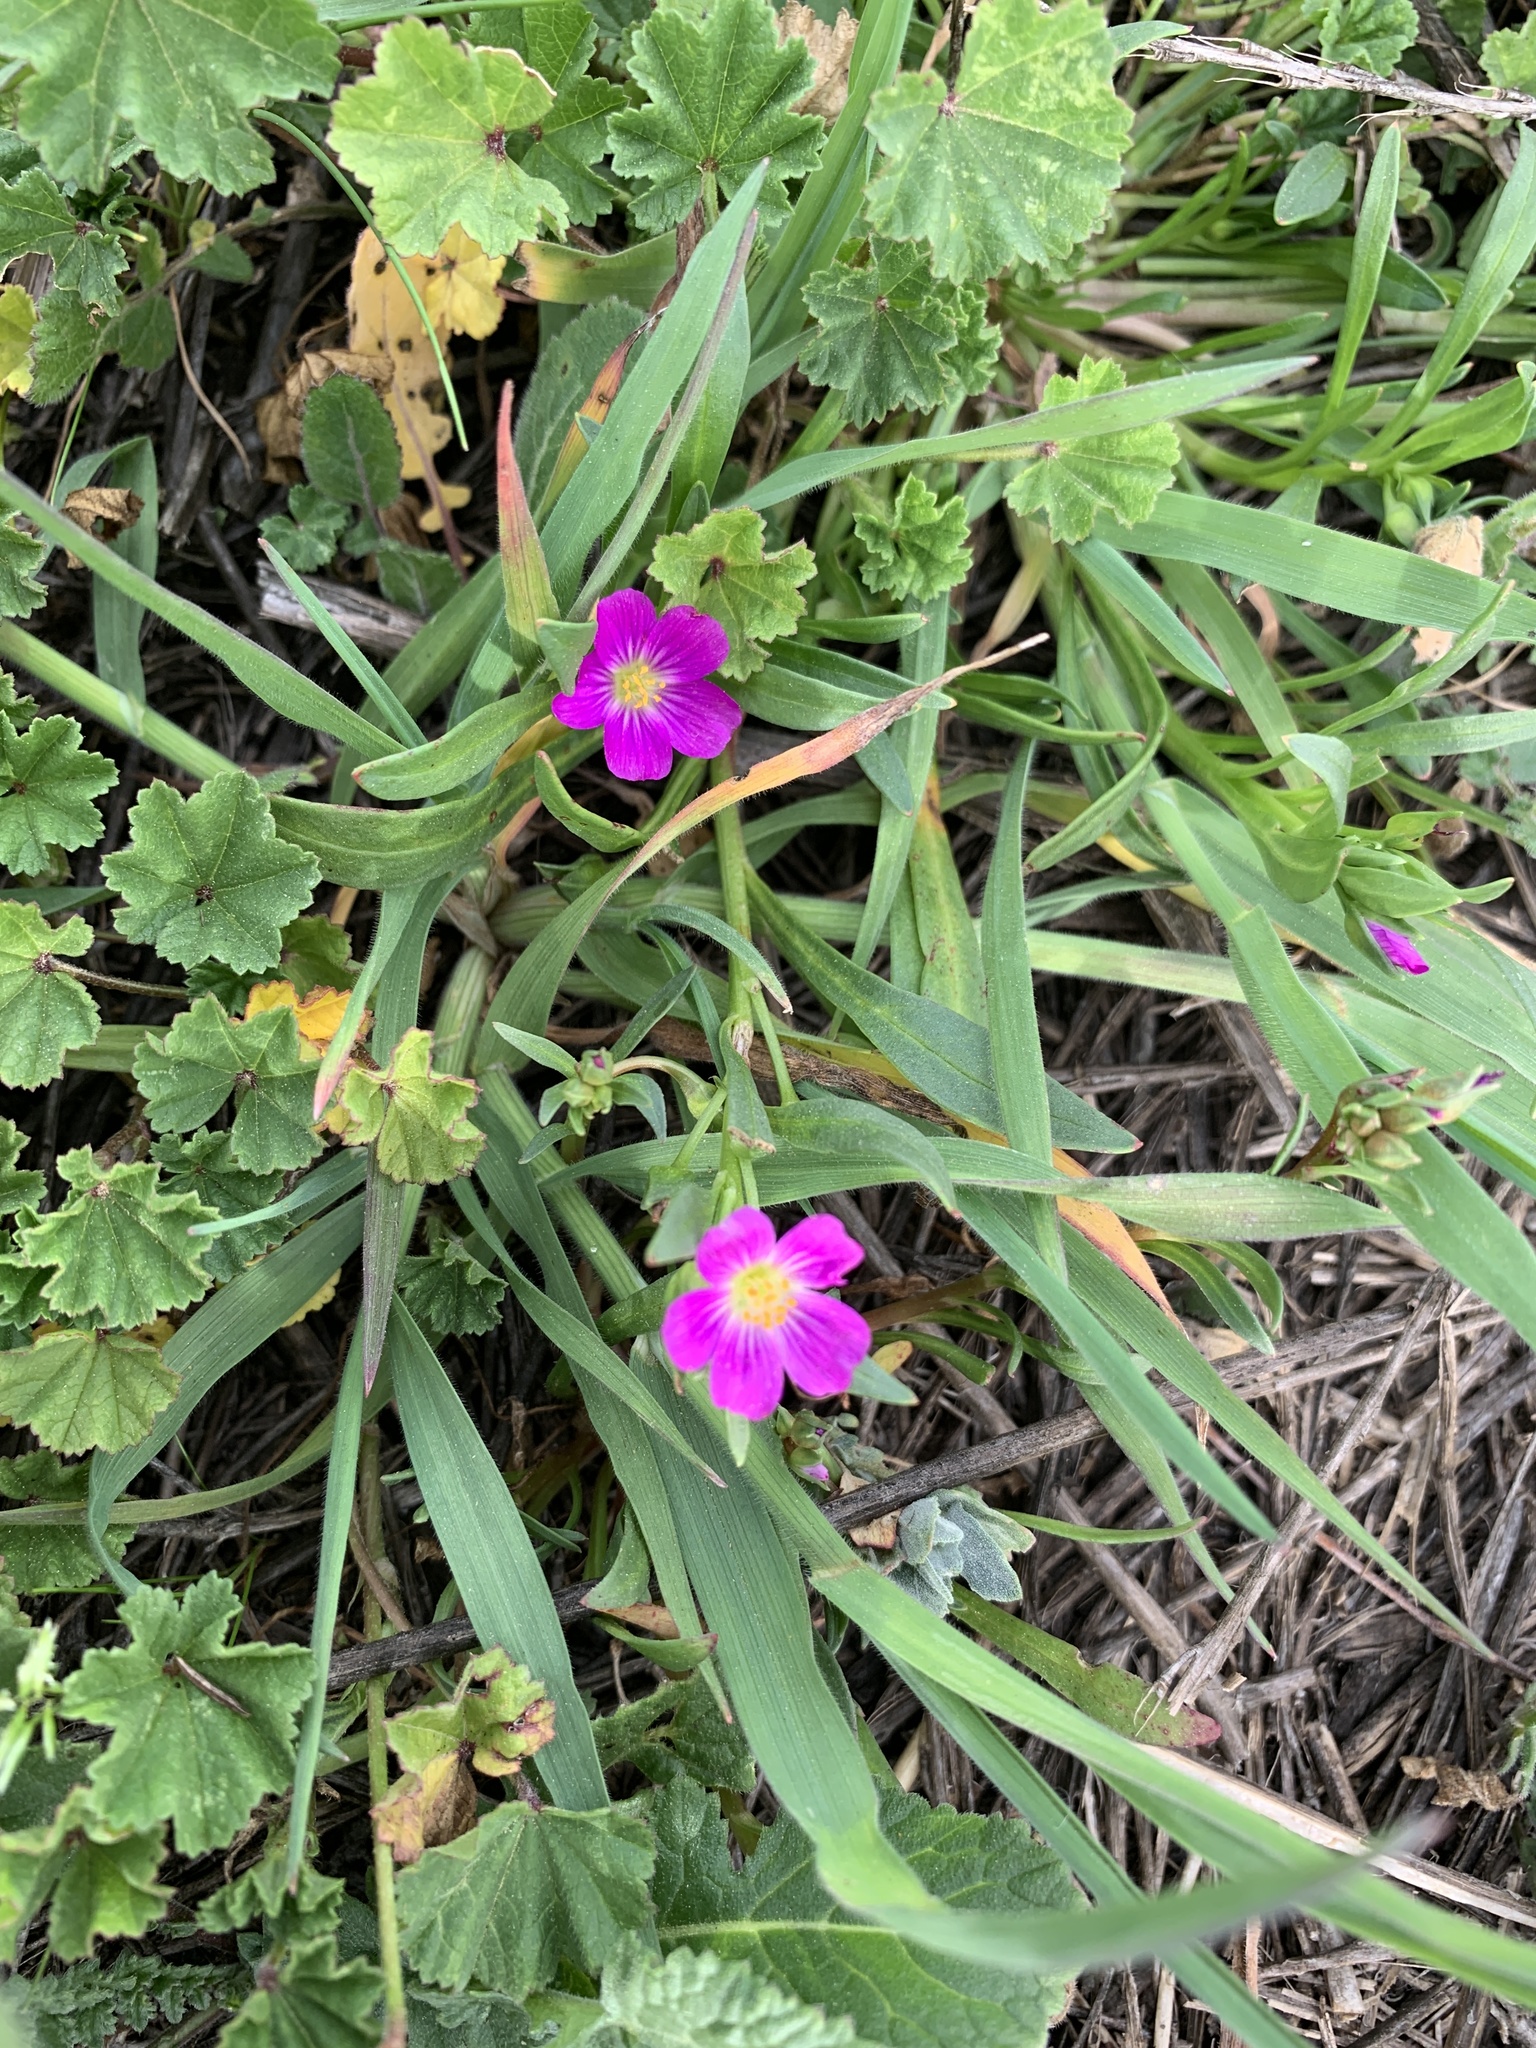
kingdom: Plantae
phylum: Tracheophyta
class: Magnoliopsida
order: Caryophyllales
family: Montiaceae
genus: Calandrinia
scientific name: Calandrinia menziesii
